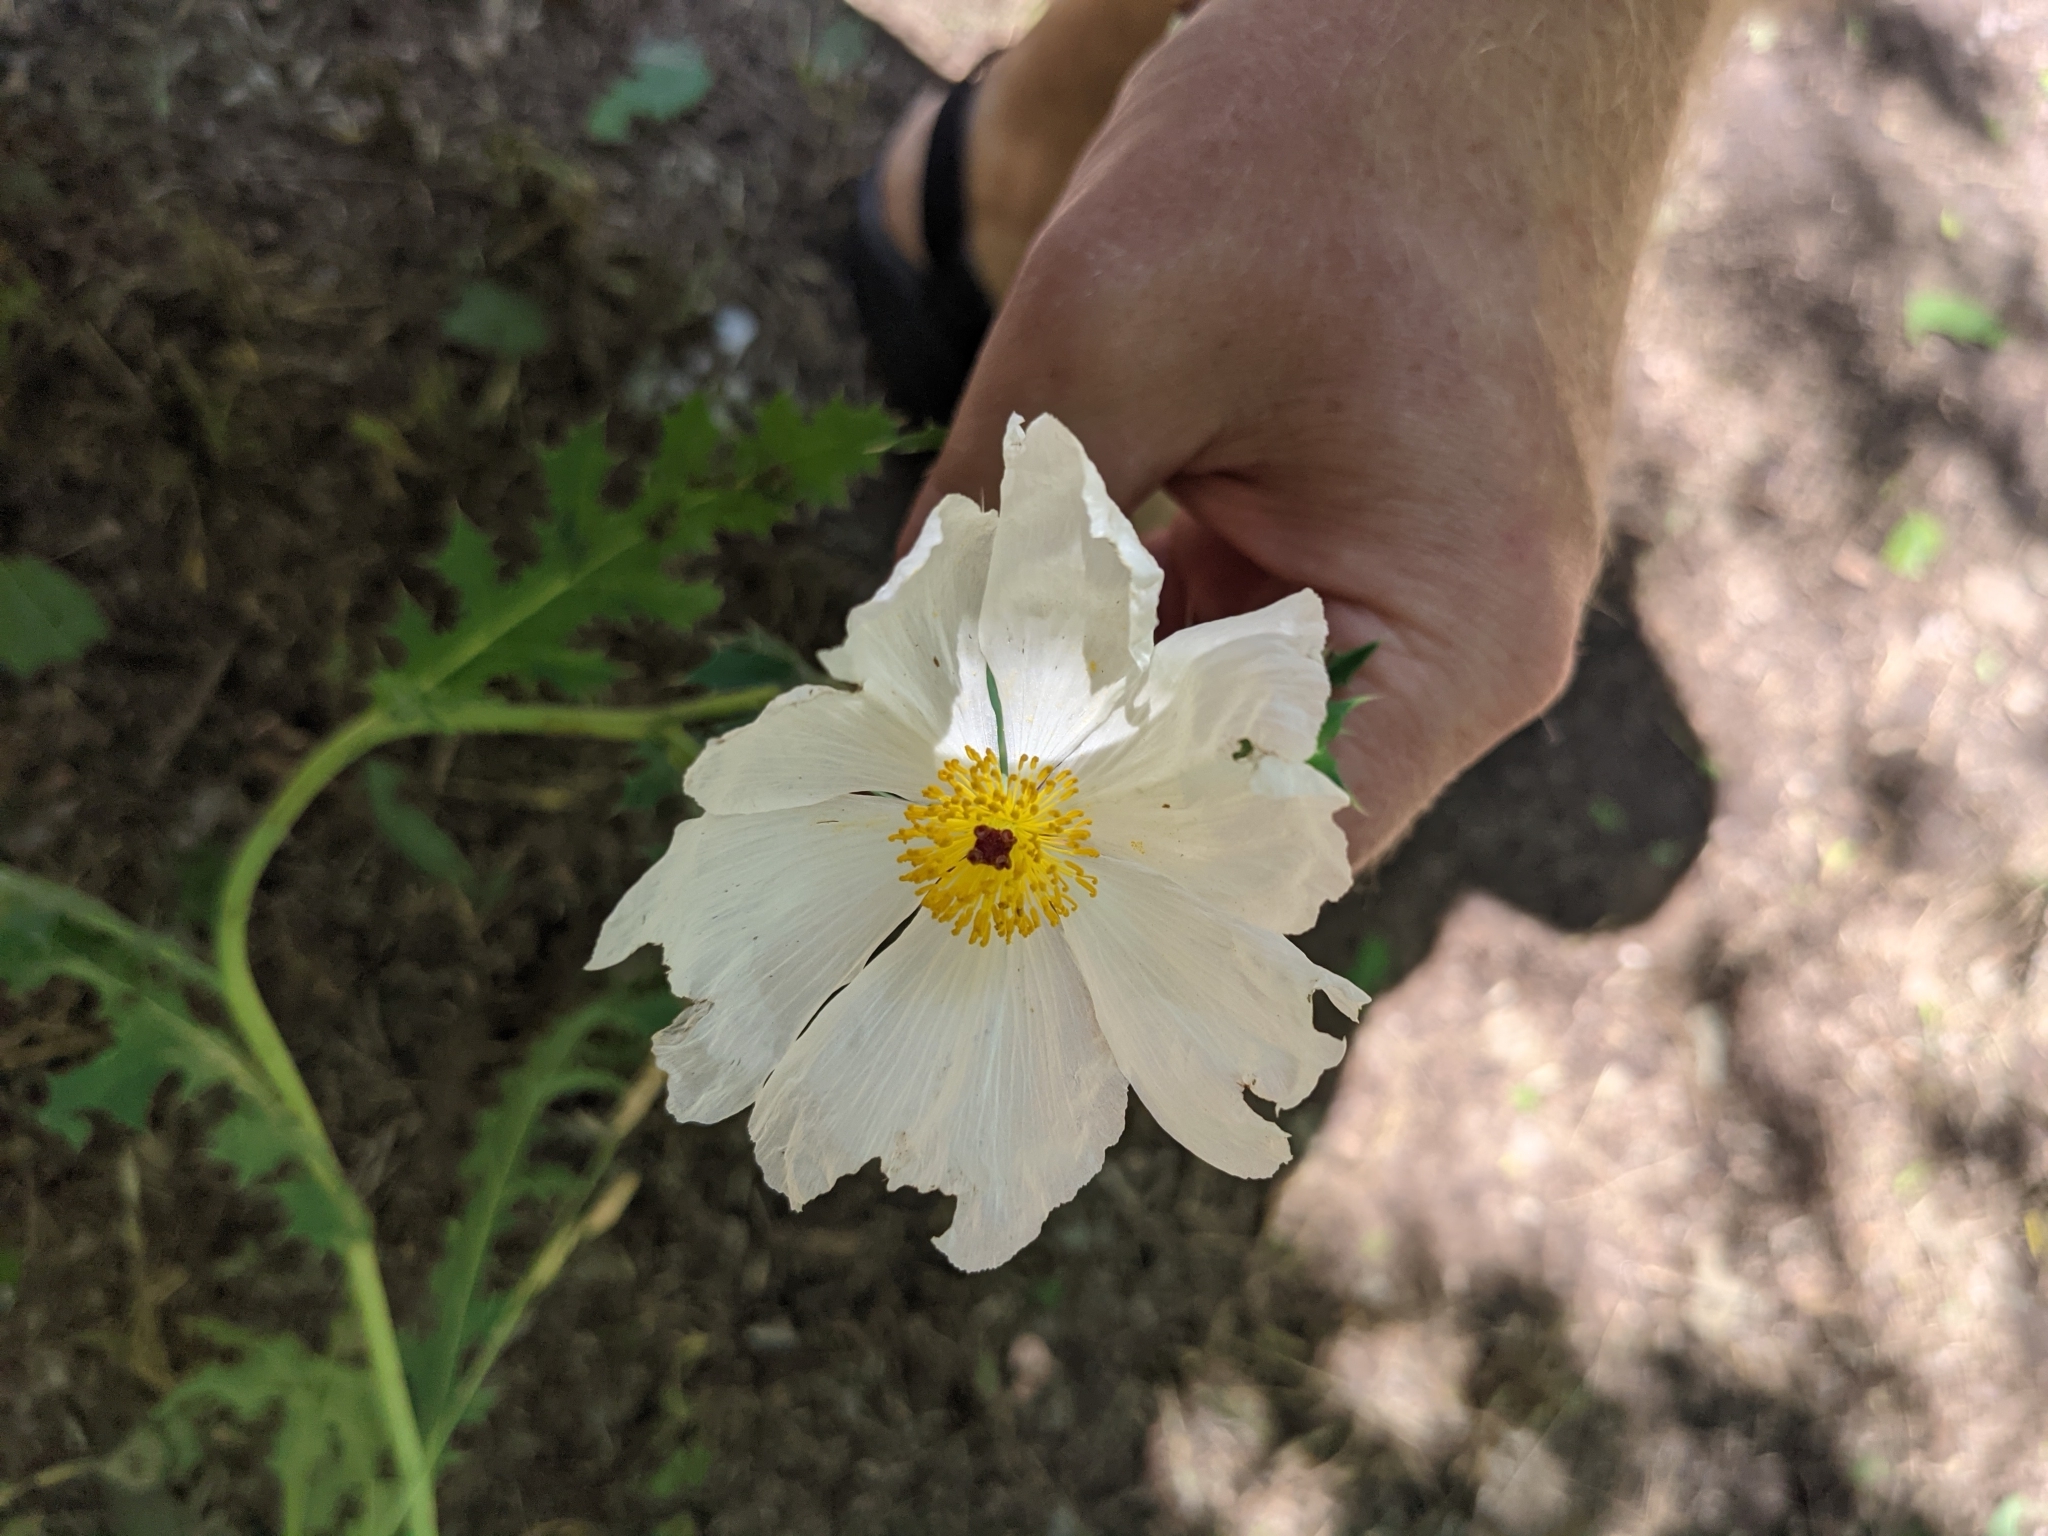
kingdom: Plantae
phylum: Tracheophyta
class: Magnoliopsida
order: Ranunculales
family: Papaveraceae
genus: Argemone
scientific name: Argemone albiflora
